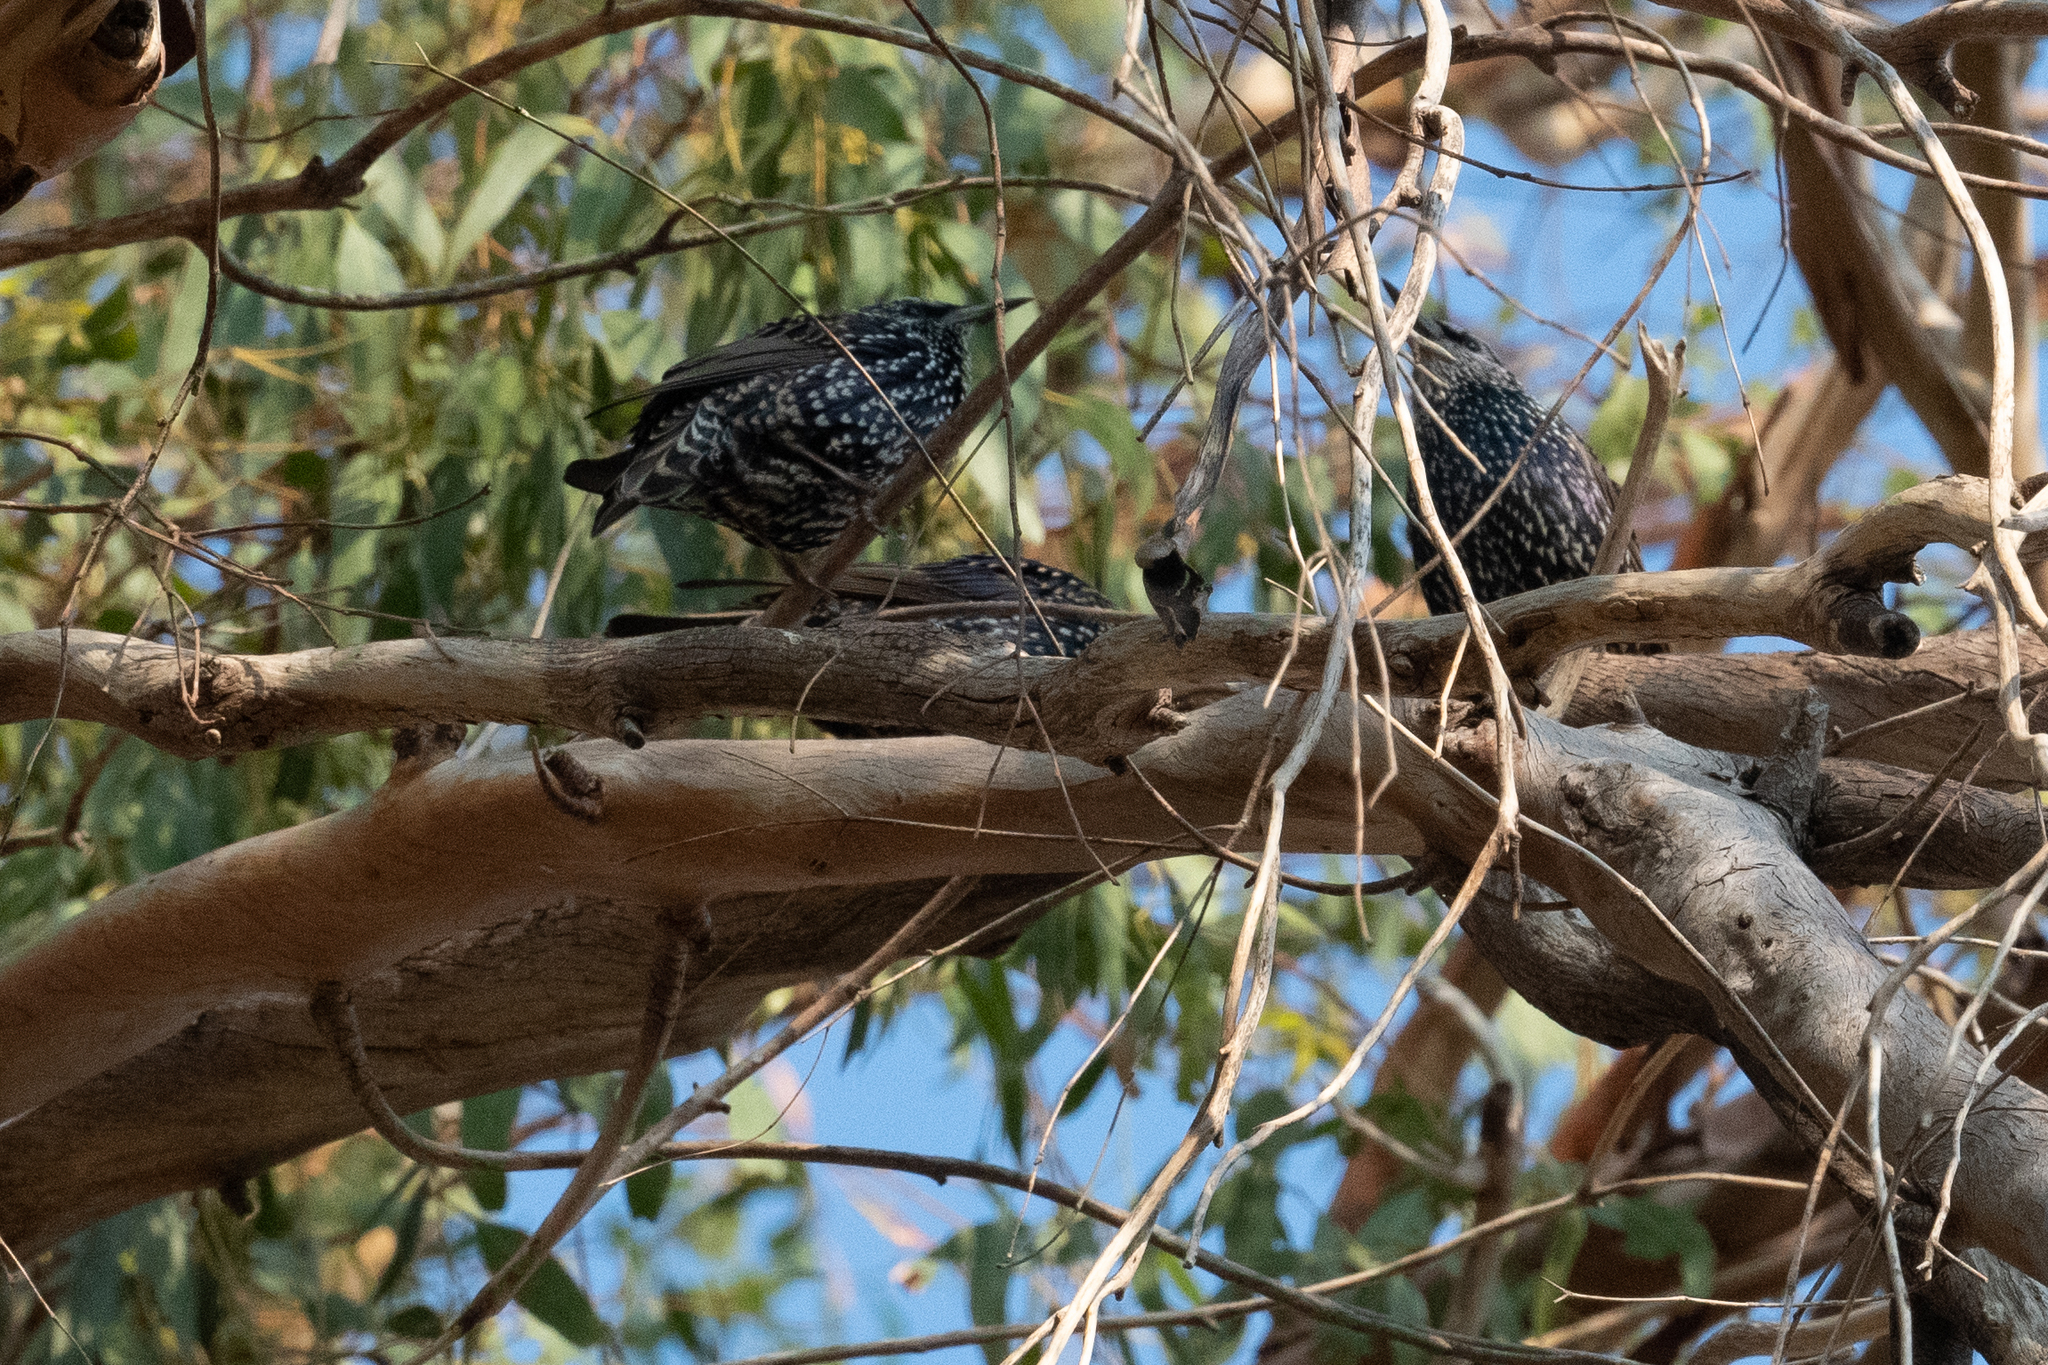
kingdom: Animalia
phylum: Chordata
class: Aves
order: Passeriformes
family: Sturnidae
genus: Sturnus
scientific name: Sturnus vulgaris
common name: Common starling
